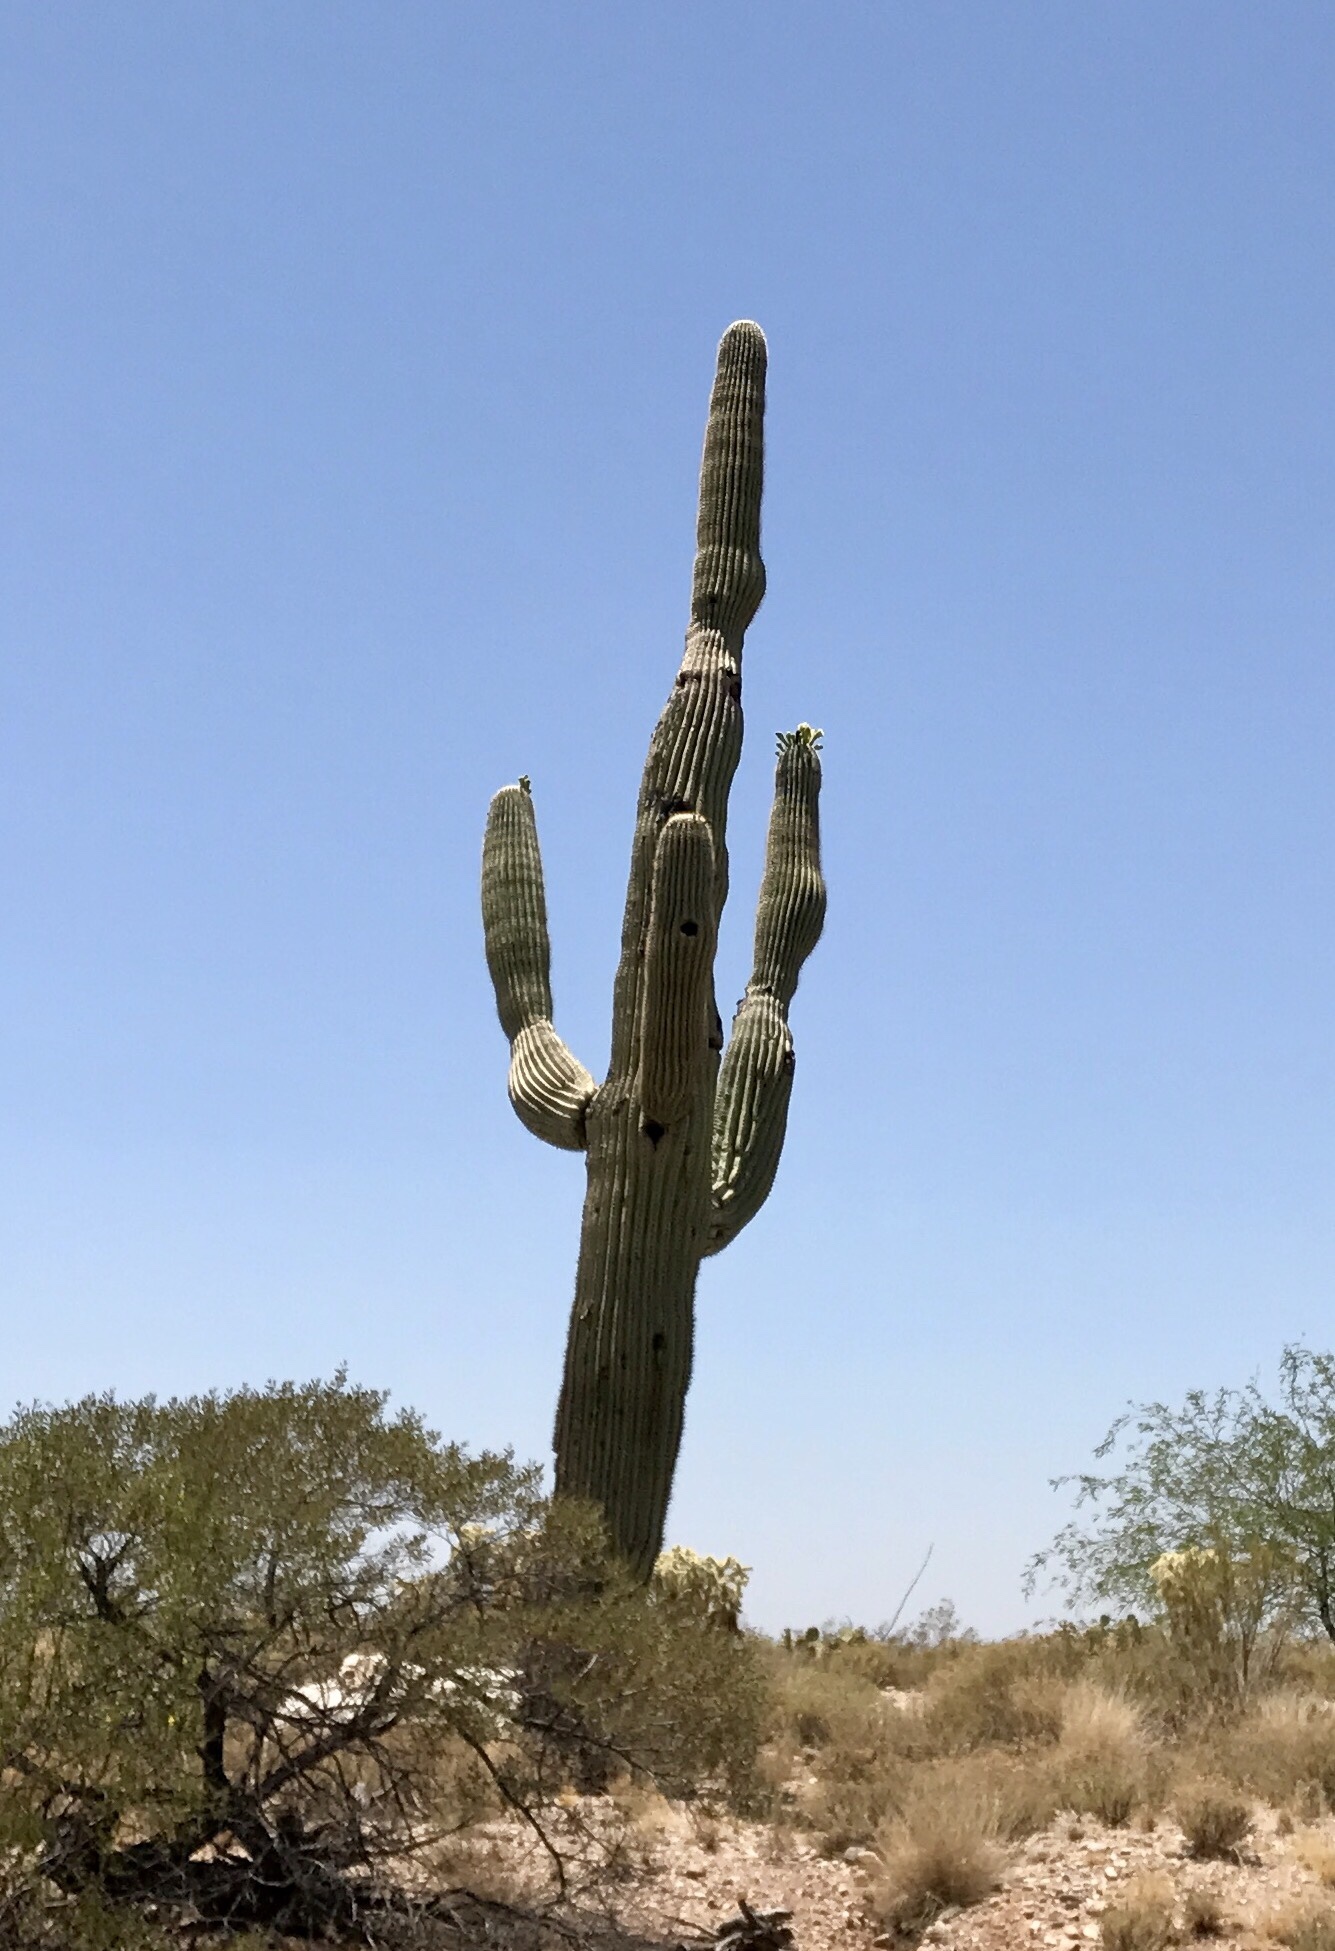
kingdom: Plantae
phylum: Tracheophyta
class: Magnoliopsida
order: Caryophyllales
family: Cactaceae
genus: Carnegiea
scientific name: Carnegiea gigantea
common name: Saguaro
